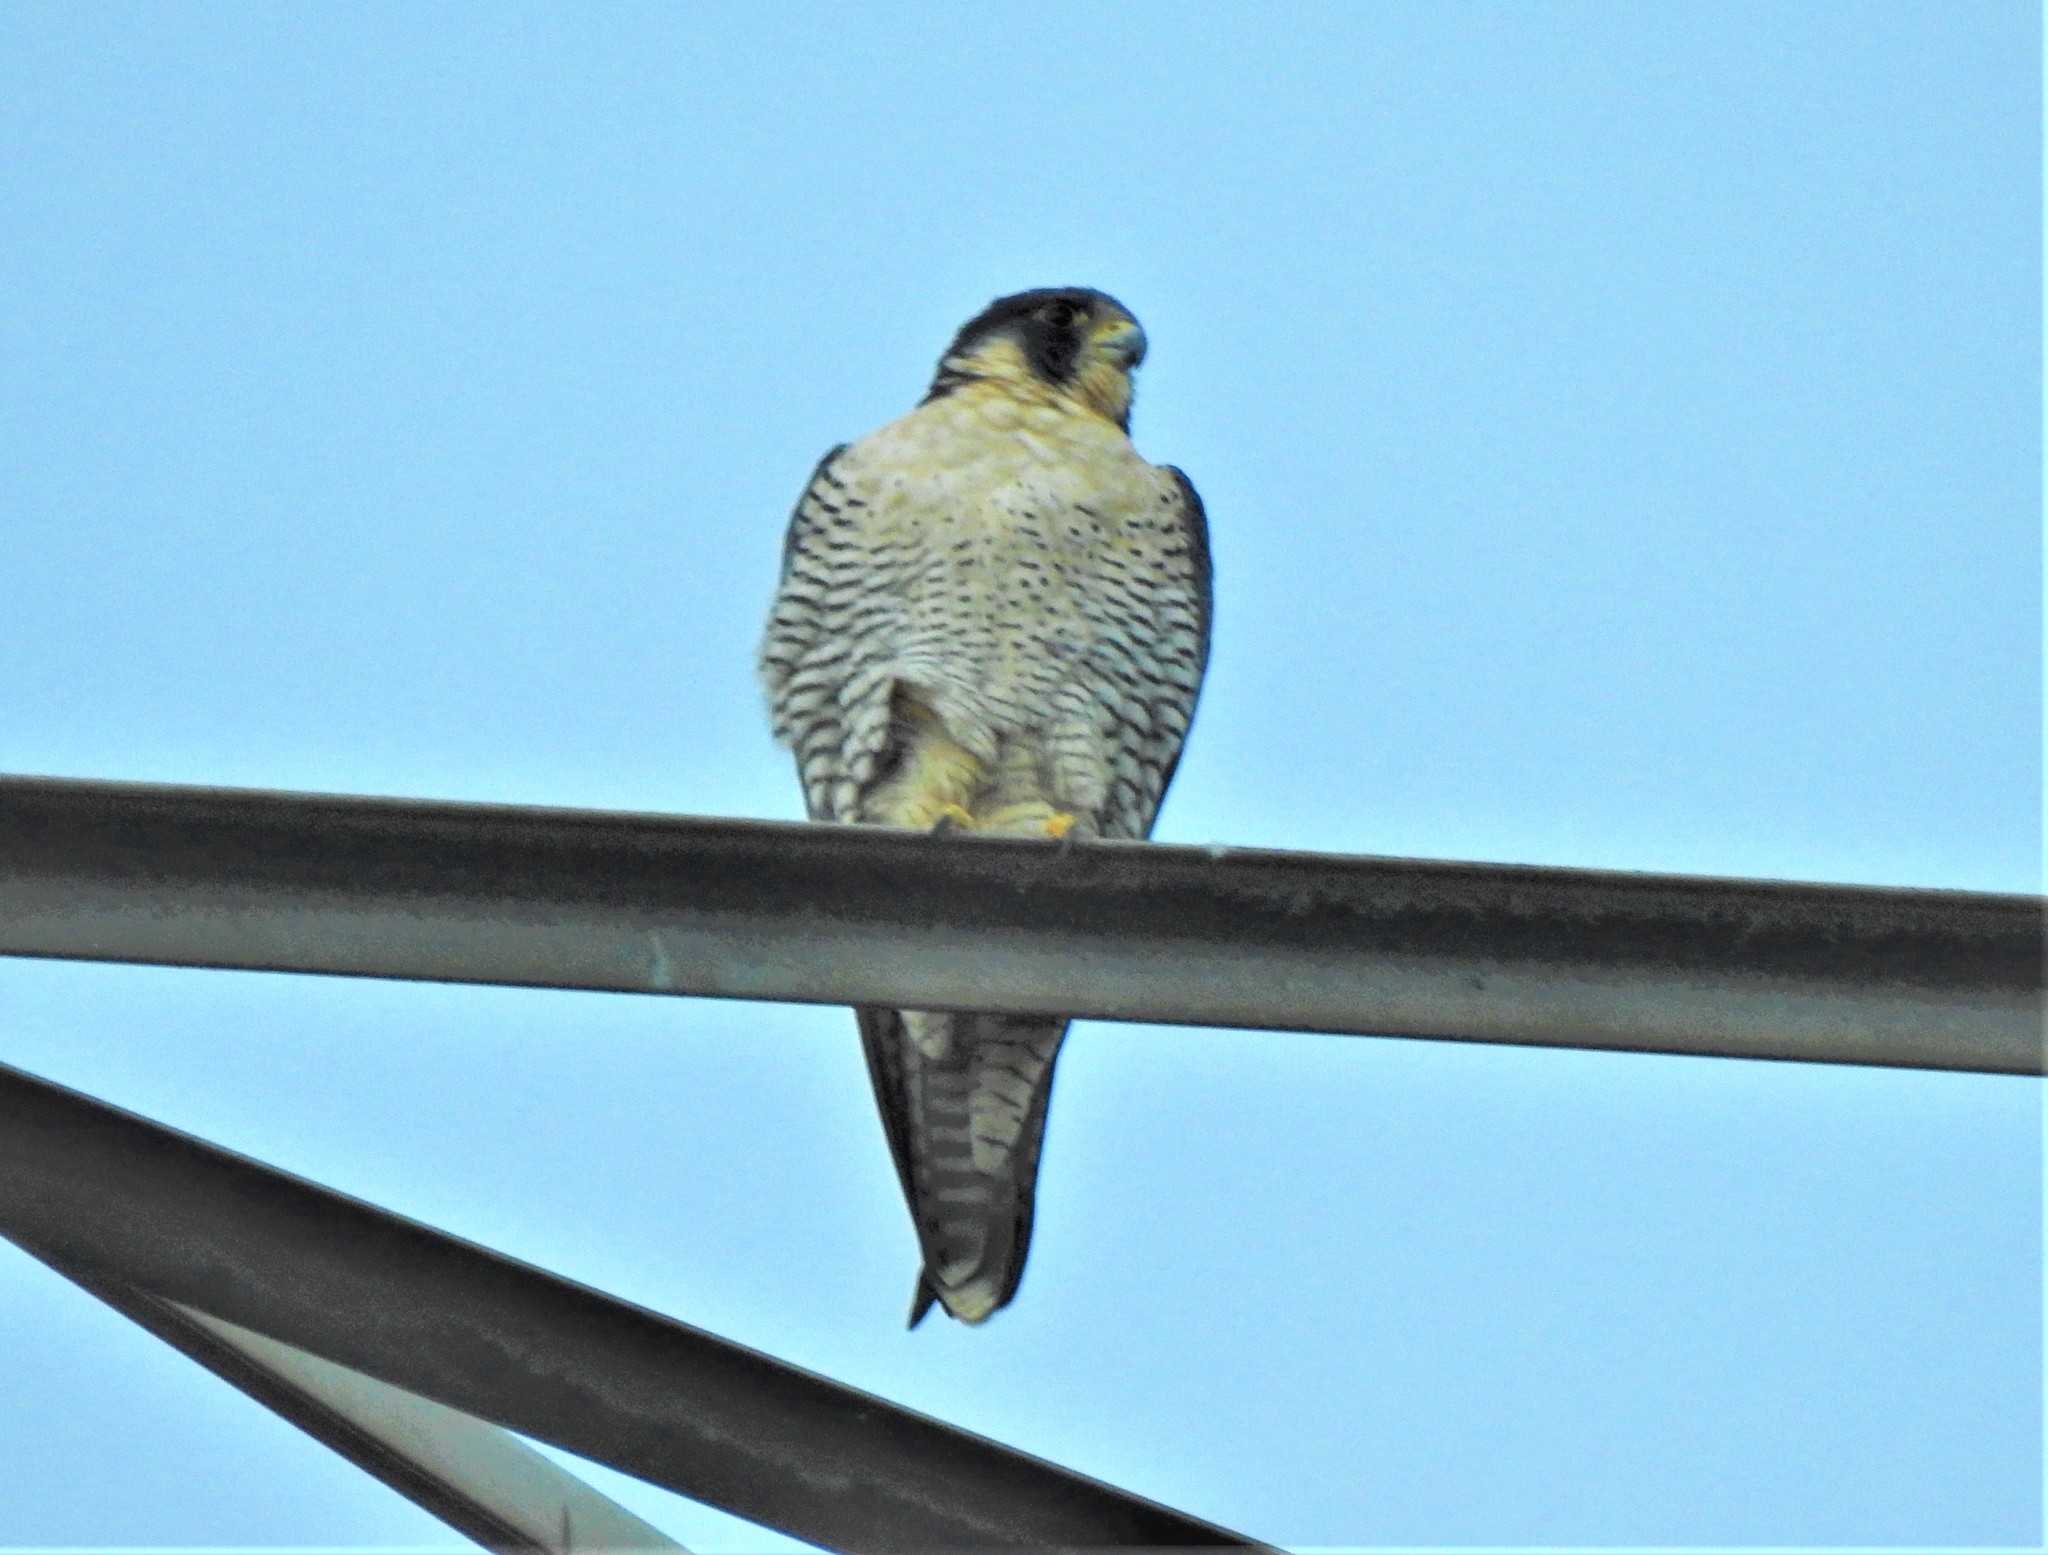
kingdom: Animalia
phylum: Chordata
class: Aves
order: Falconiformes
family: Falconidae
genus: Falco
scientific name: Falco peregrinus
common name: Peregrine falcon
